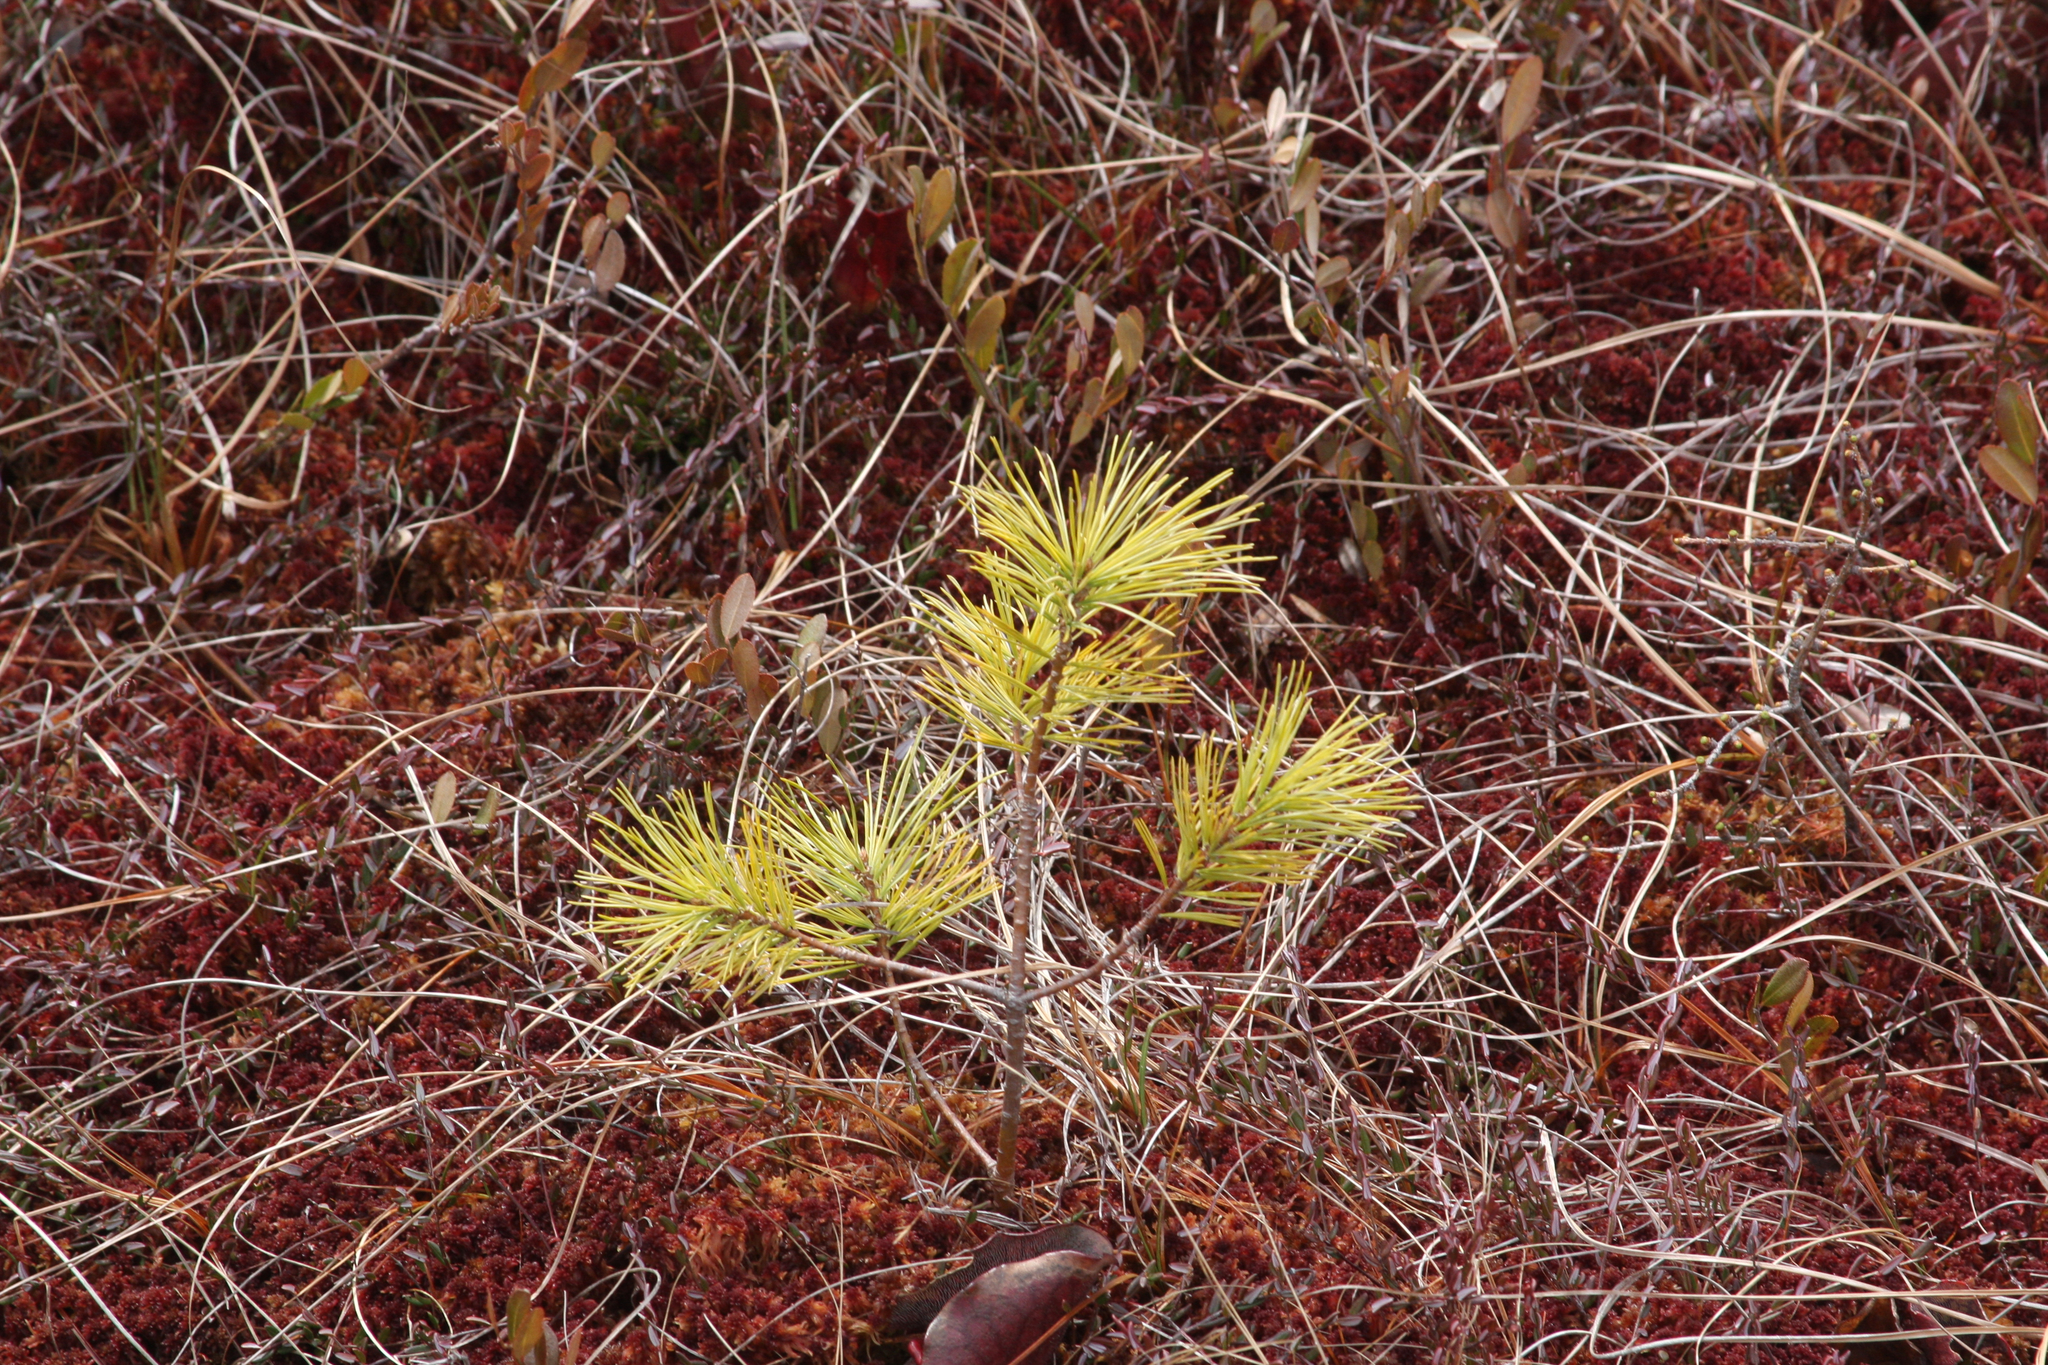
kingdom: Plantae
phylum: Tracheophyta
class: Pinopsida
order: Pinales
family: Pinaceae
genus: Pinus
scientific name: Pinus strobus
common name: Weymouth pine
